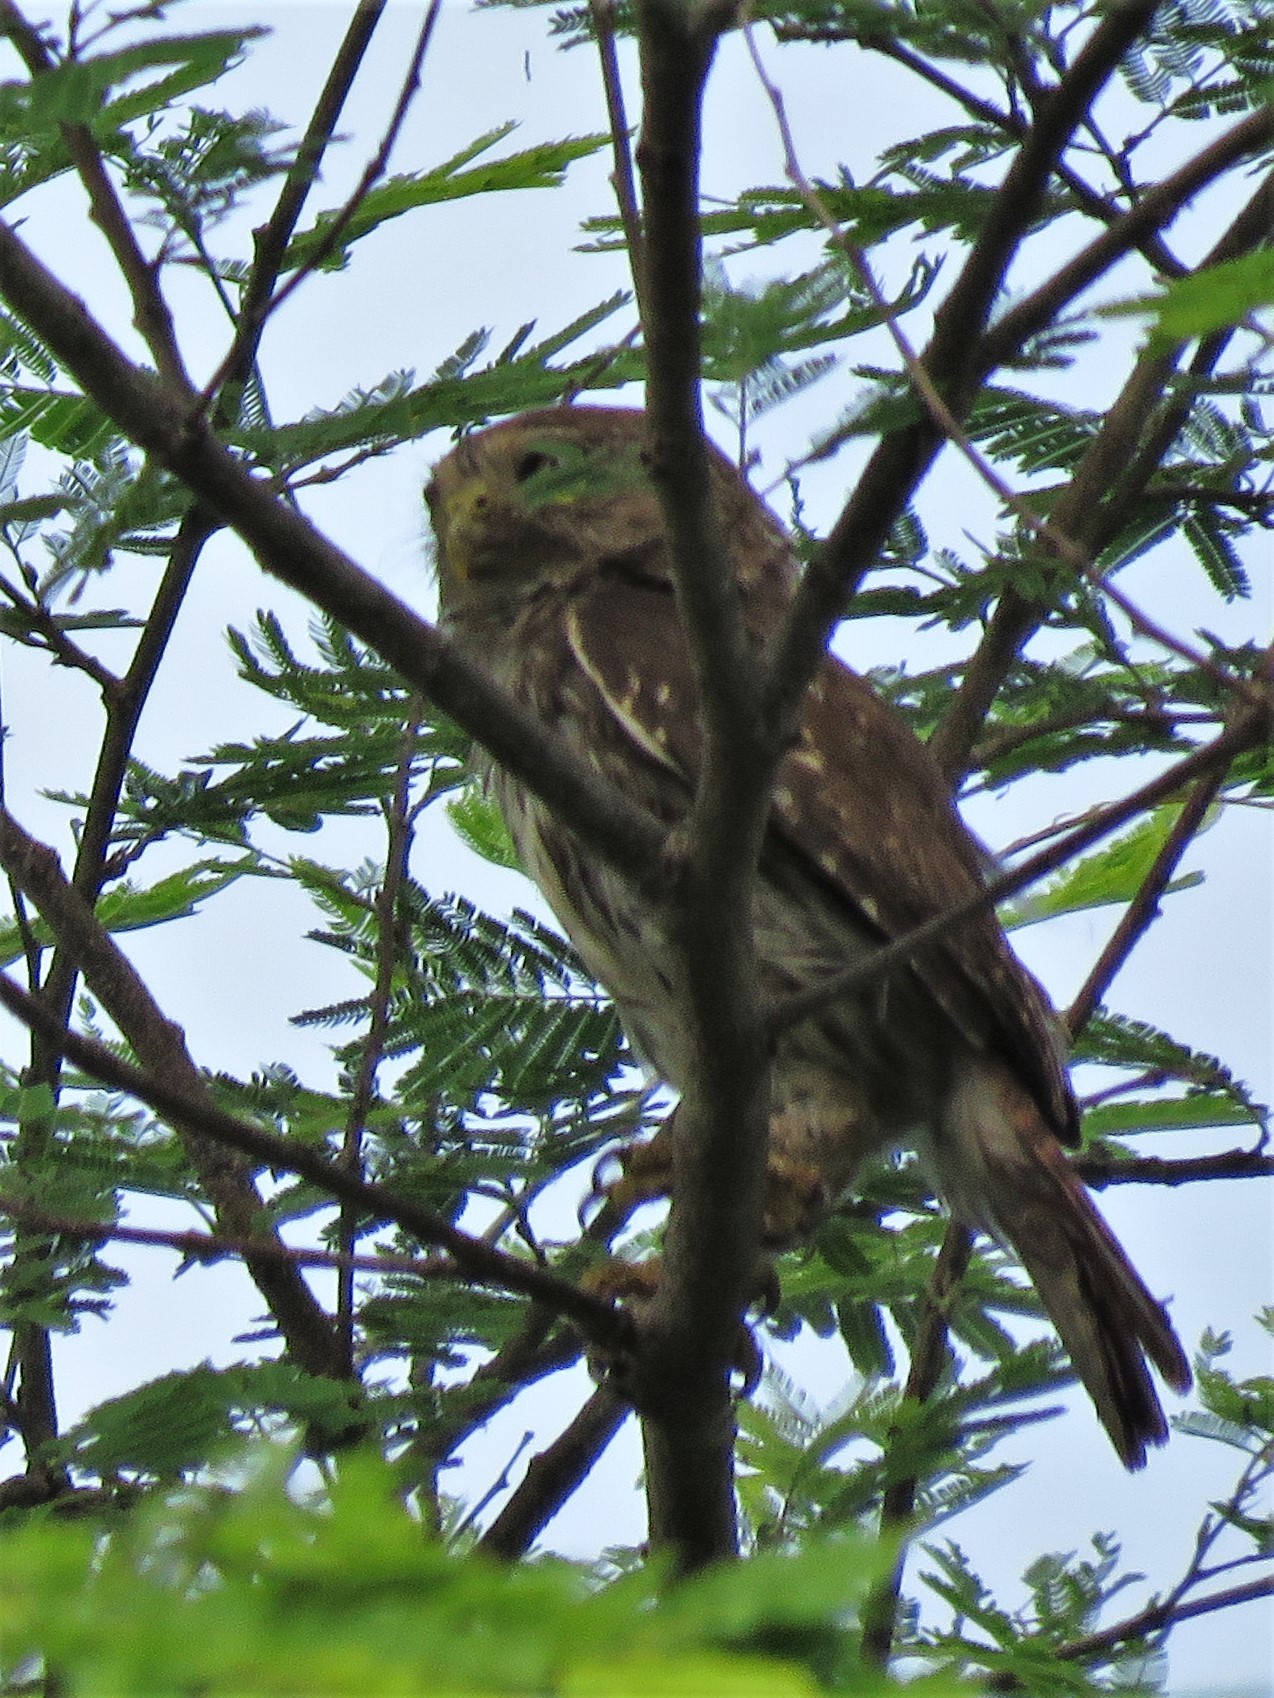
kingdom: Animalia
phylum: Chordata
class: Aves
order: Strigiformes
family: Strigidae
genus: Glaucidium
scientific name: Glaucidium brasilianum
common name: Ferruginous pygmy-owl
